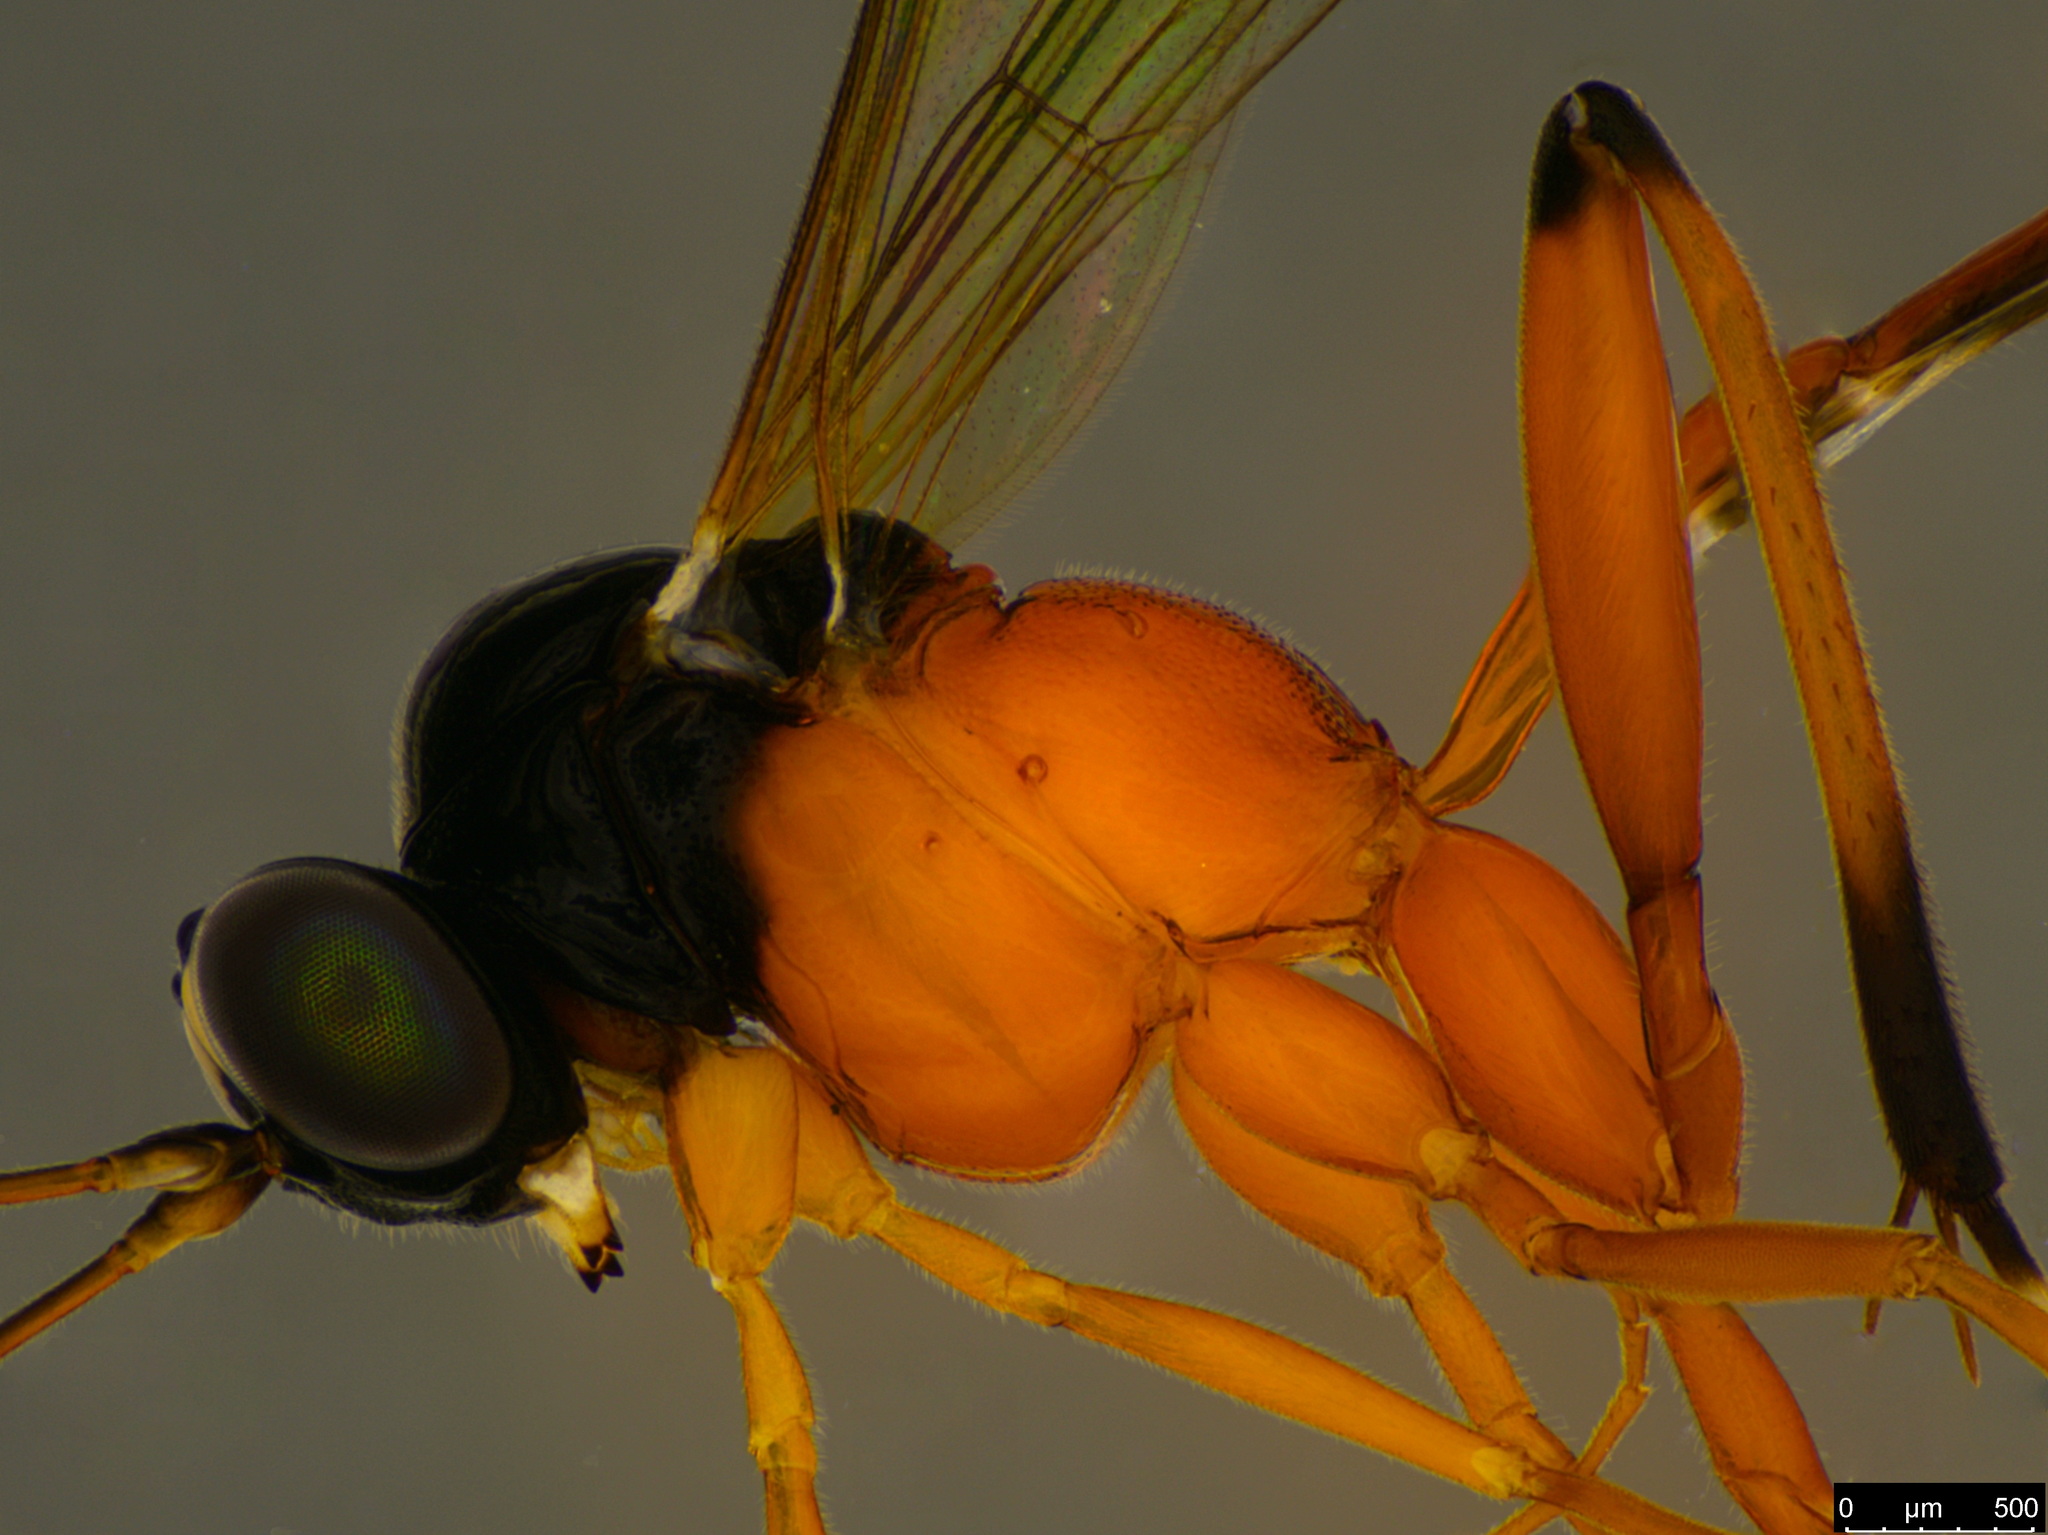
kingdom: Animalia
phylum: Arthropoda
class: Insecta
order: Hymenoptera
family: Ichneumonidae
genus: Leptobatopsis
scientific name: Leptobatopsis mesominiata
